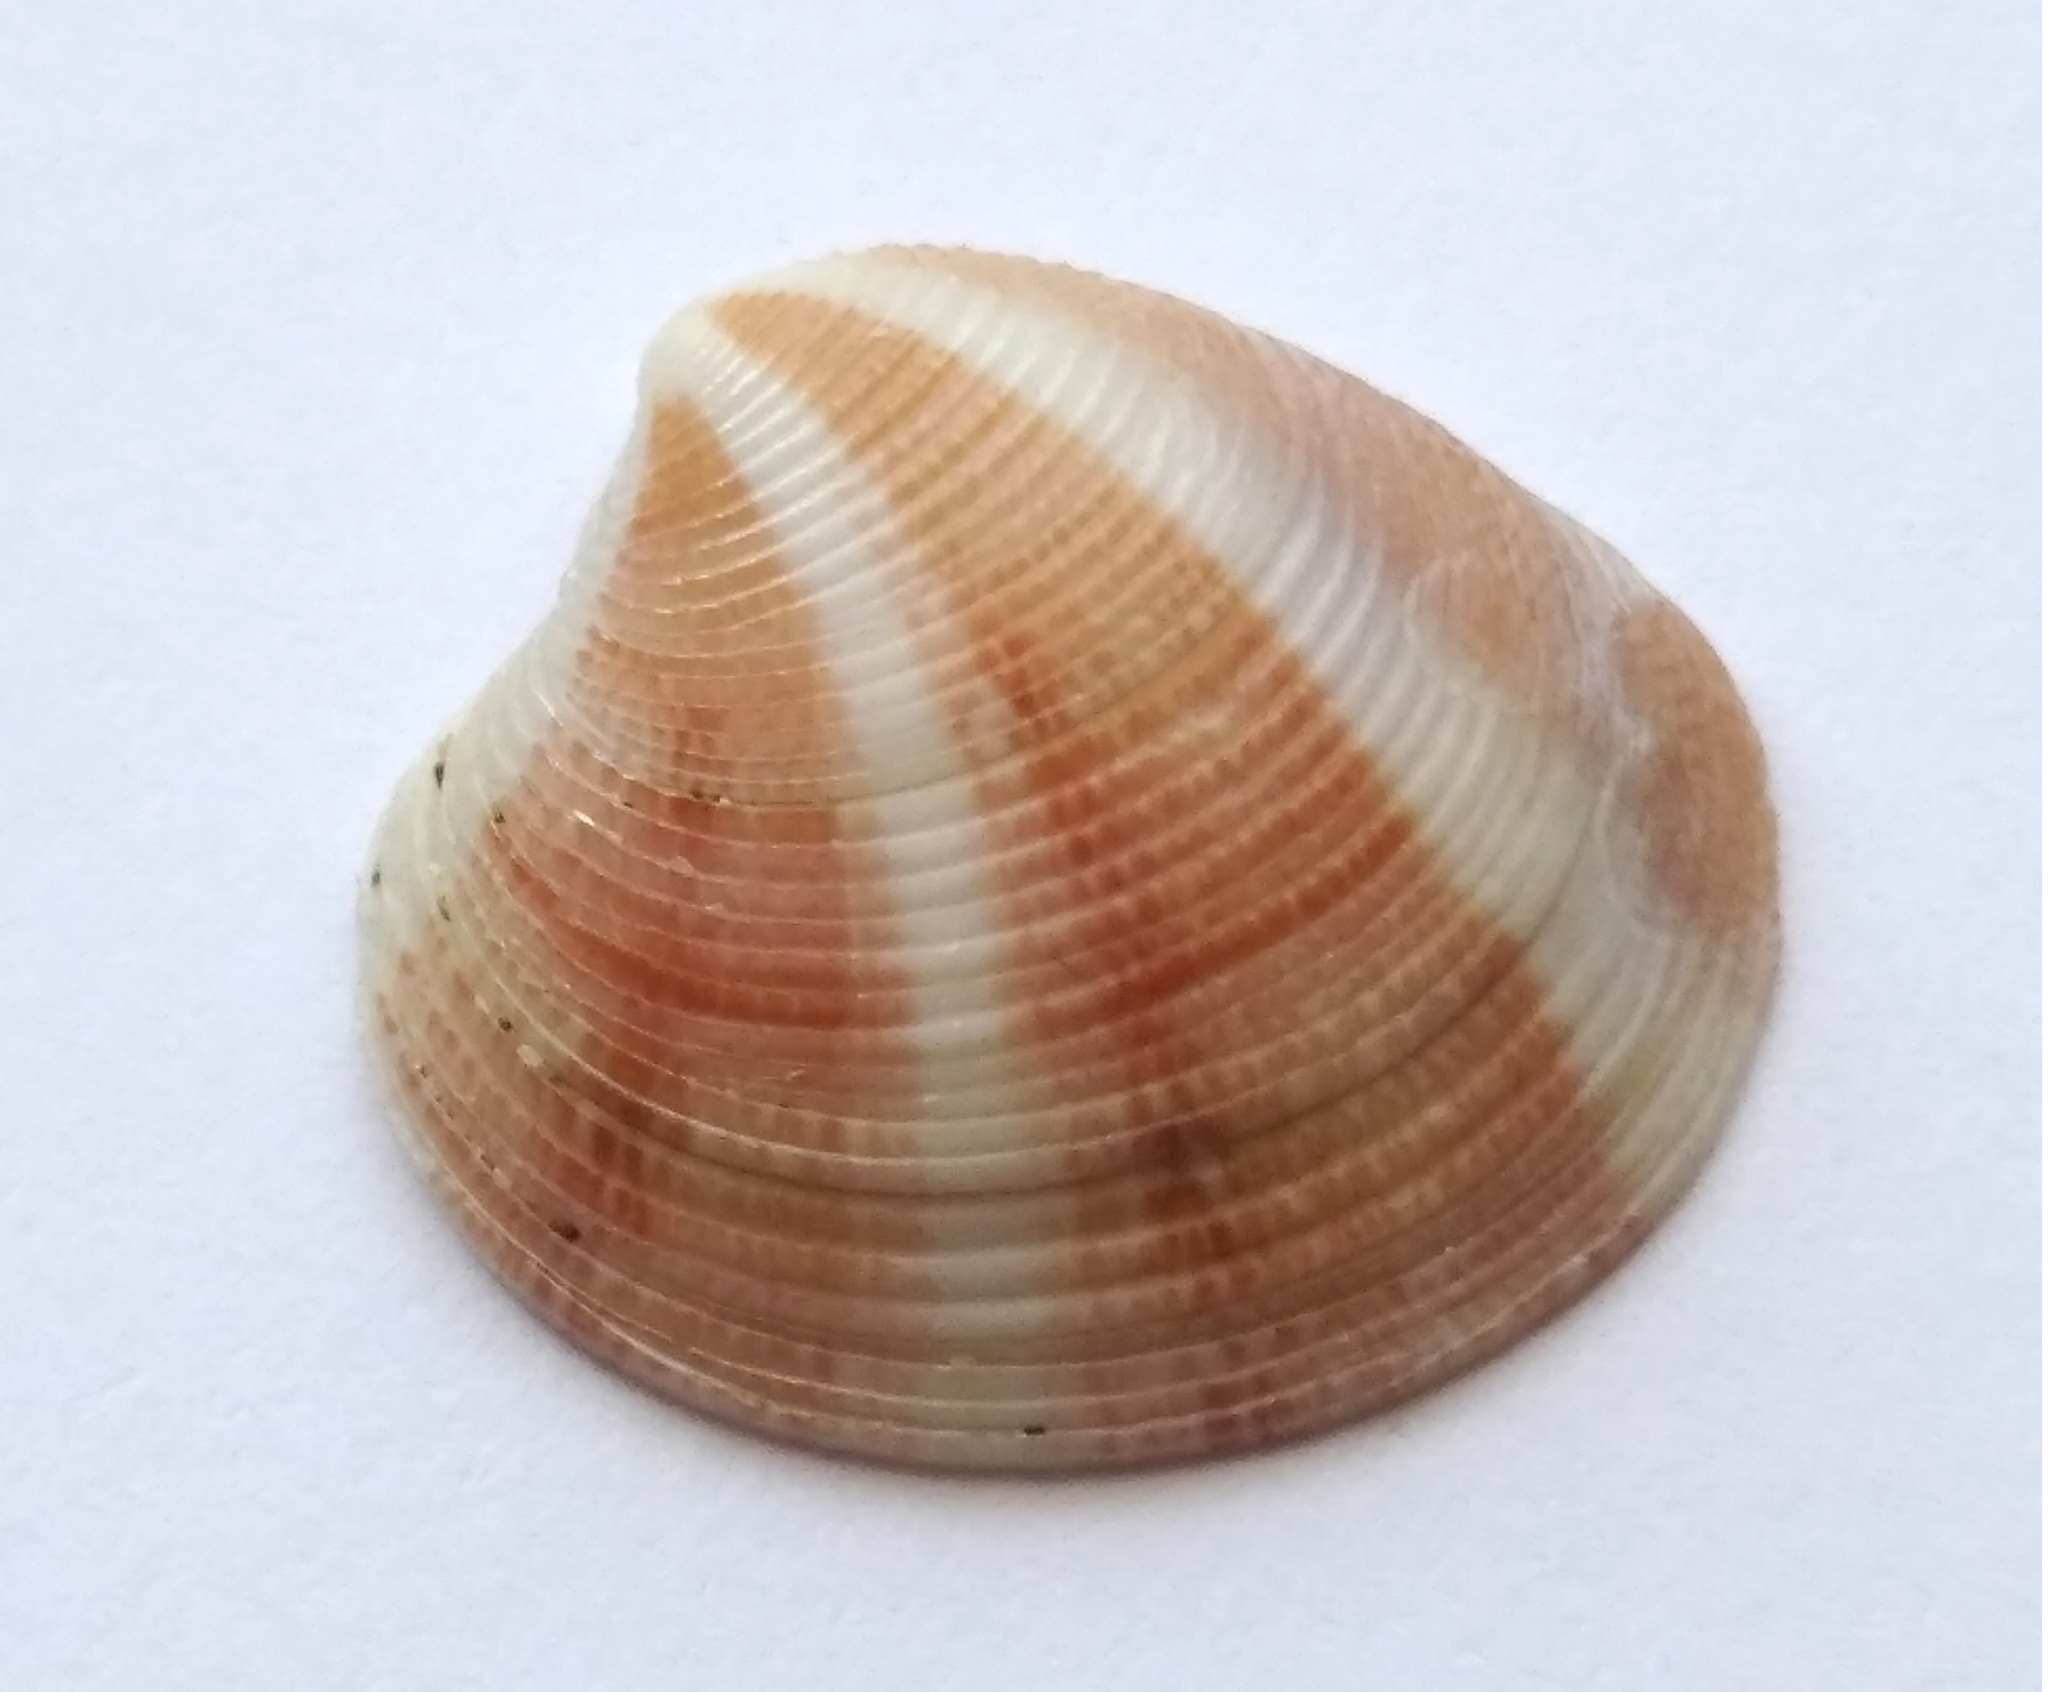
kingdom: Animalia
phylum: Mollusca
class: Bivalvia
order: Venerida
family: Veneridae
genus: Chamelea
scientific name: Chamelea gallina
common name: Chicken venus
